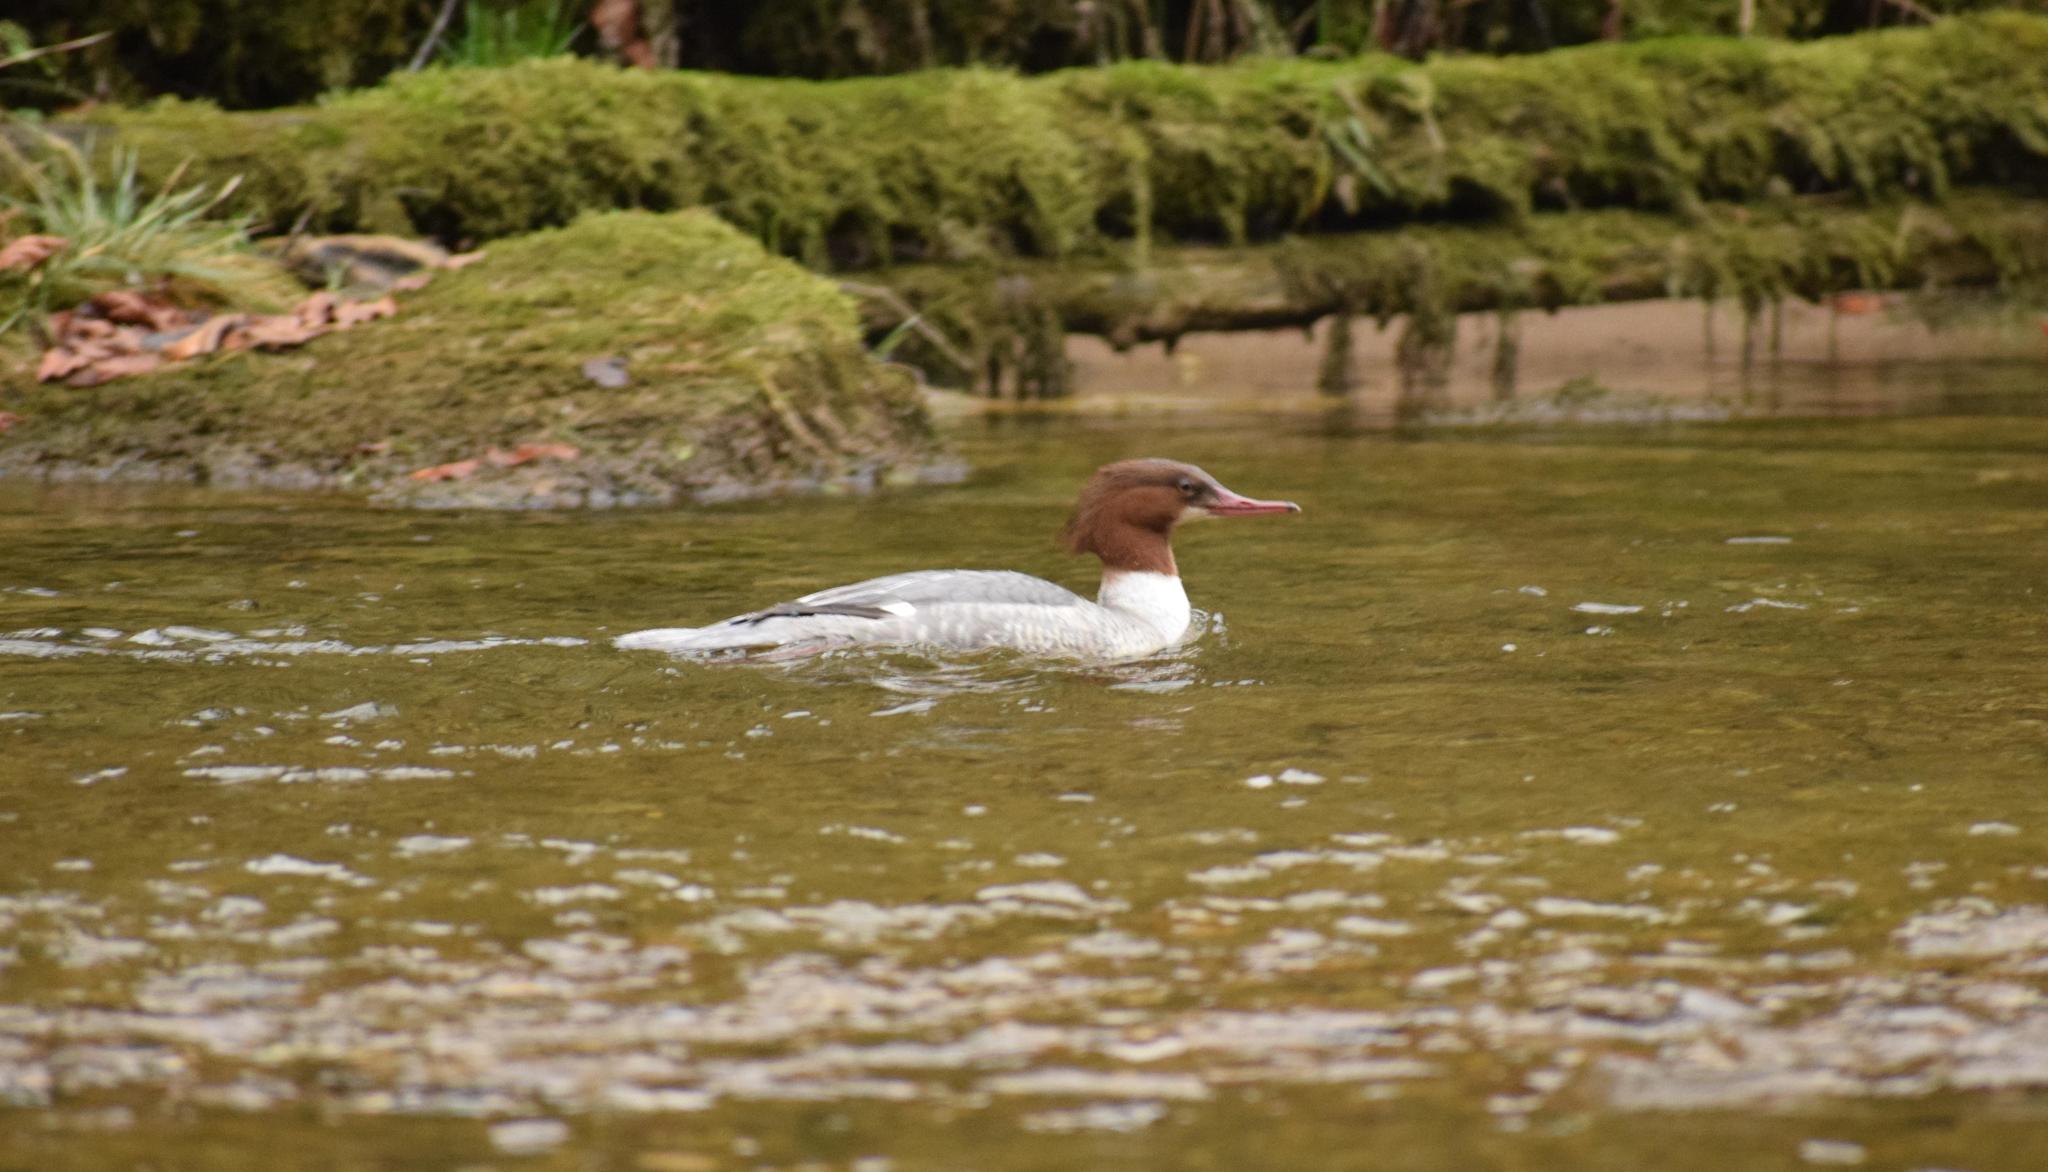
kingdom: Animalia
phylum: Chordata
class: Aves
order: Anseriformes
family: Anatidae
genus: Mergus
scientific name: Mergus merganser
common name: Common merganser
